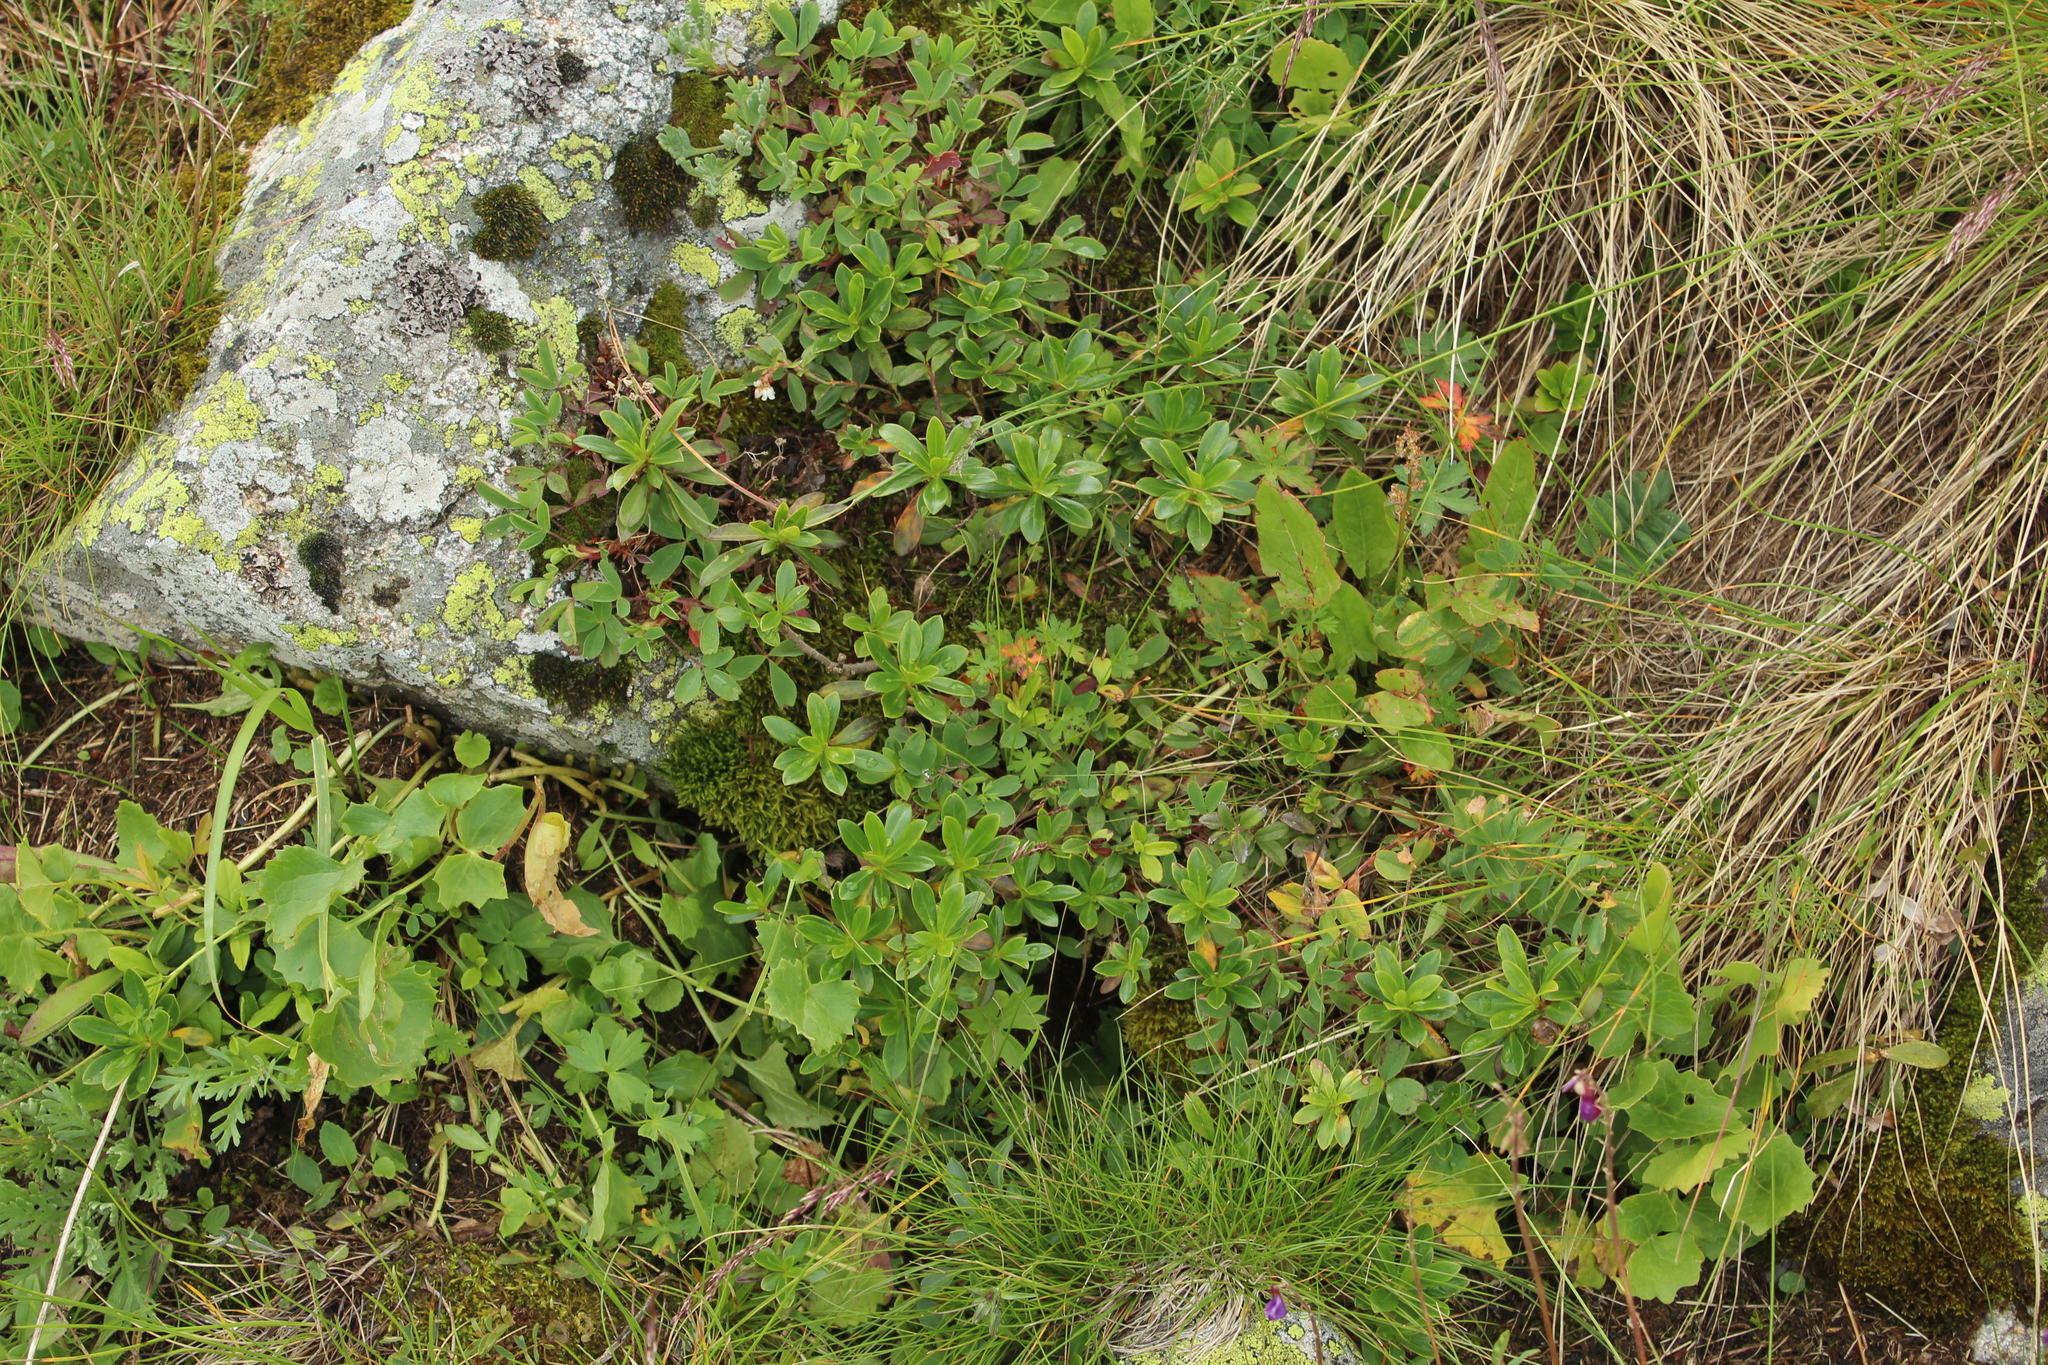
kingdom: Plantae
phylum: Tracheophyta
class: Magnoliopsida
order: Malvales
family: Thymelaeaceae
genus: Daphne
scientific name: Daphne glomerata
